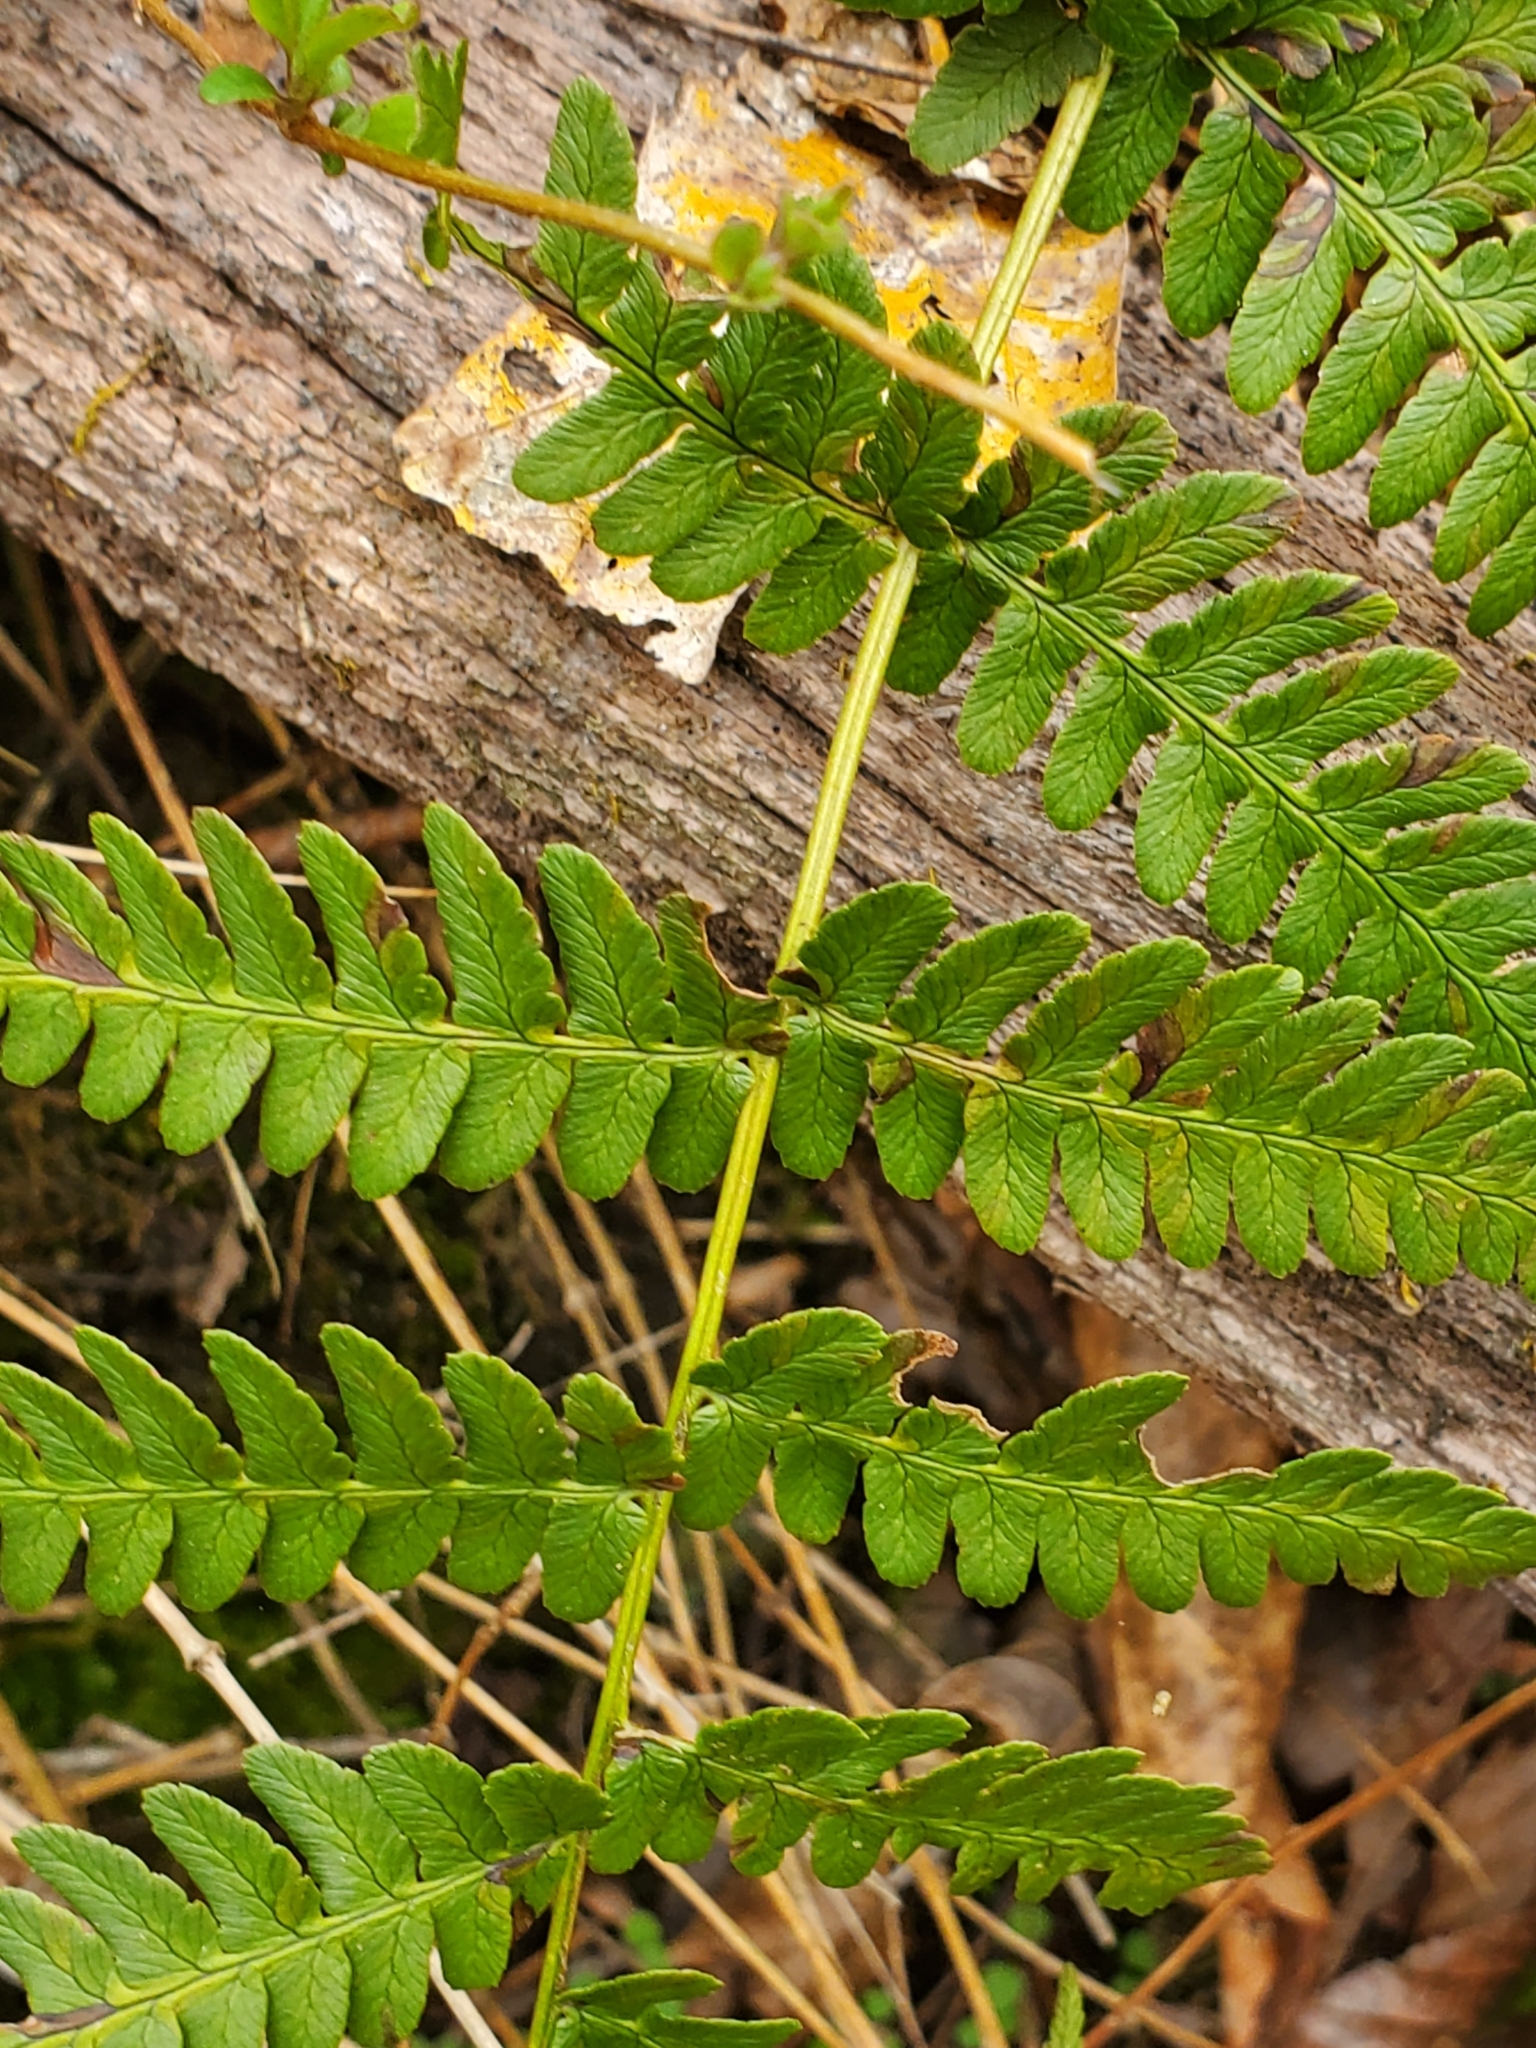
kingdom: Plantae
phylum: Tracheophyta
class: Polypodiopsida
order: Polypodiales
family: Dryopteridaceae
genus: Dryopteris
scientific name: Dryopteris marginalis
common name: Marginal wood fern
